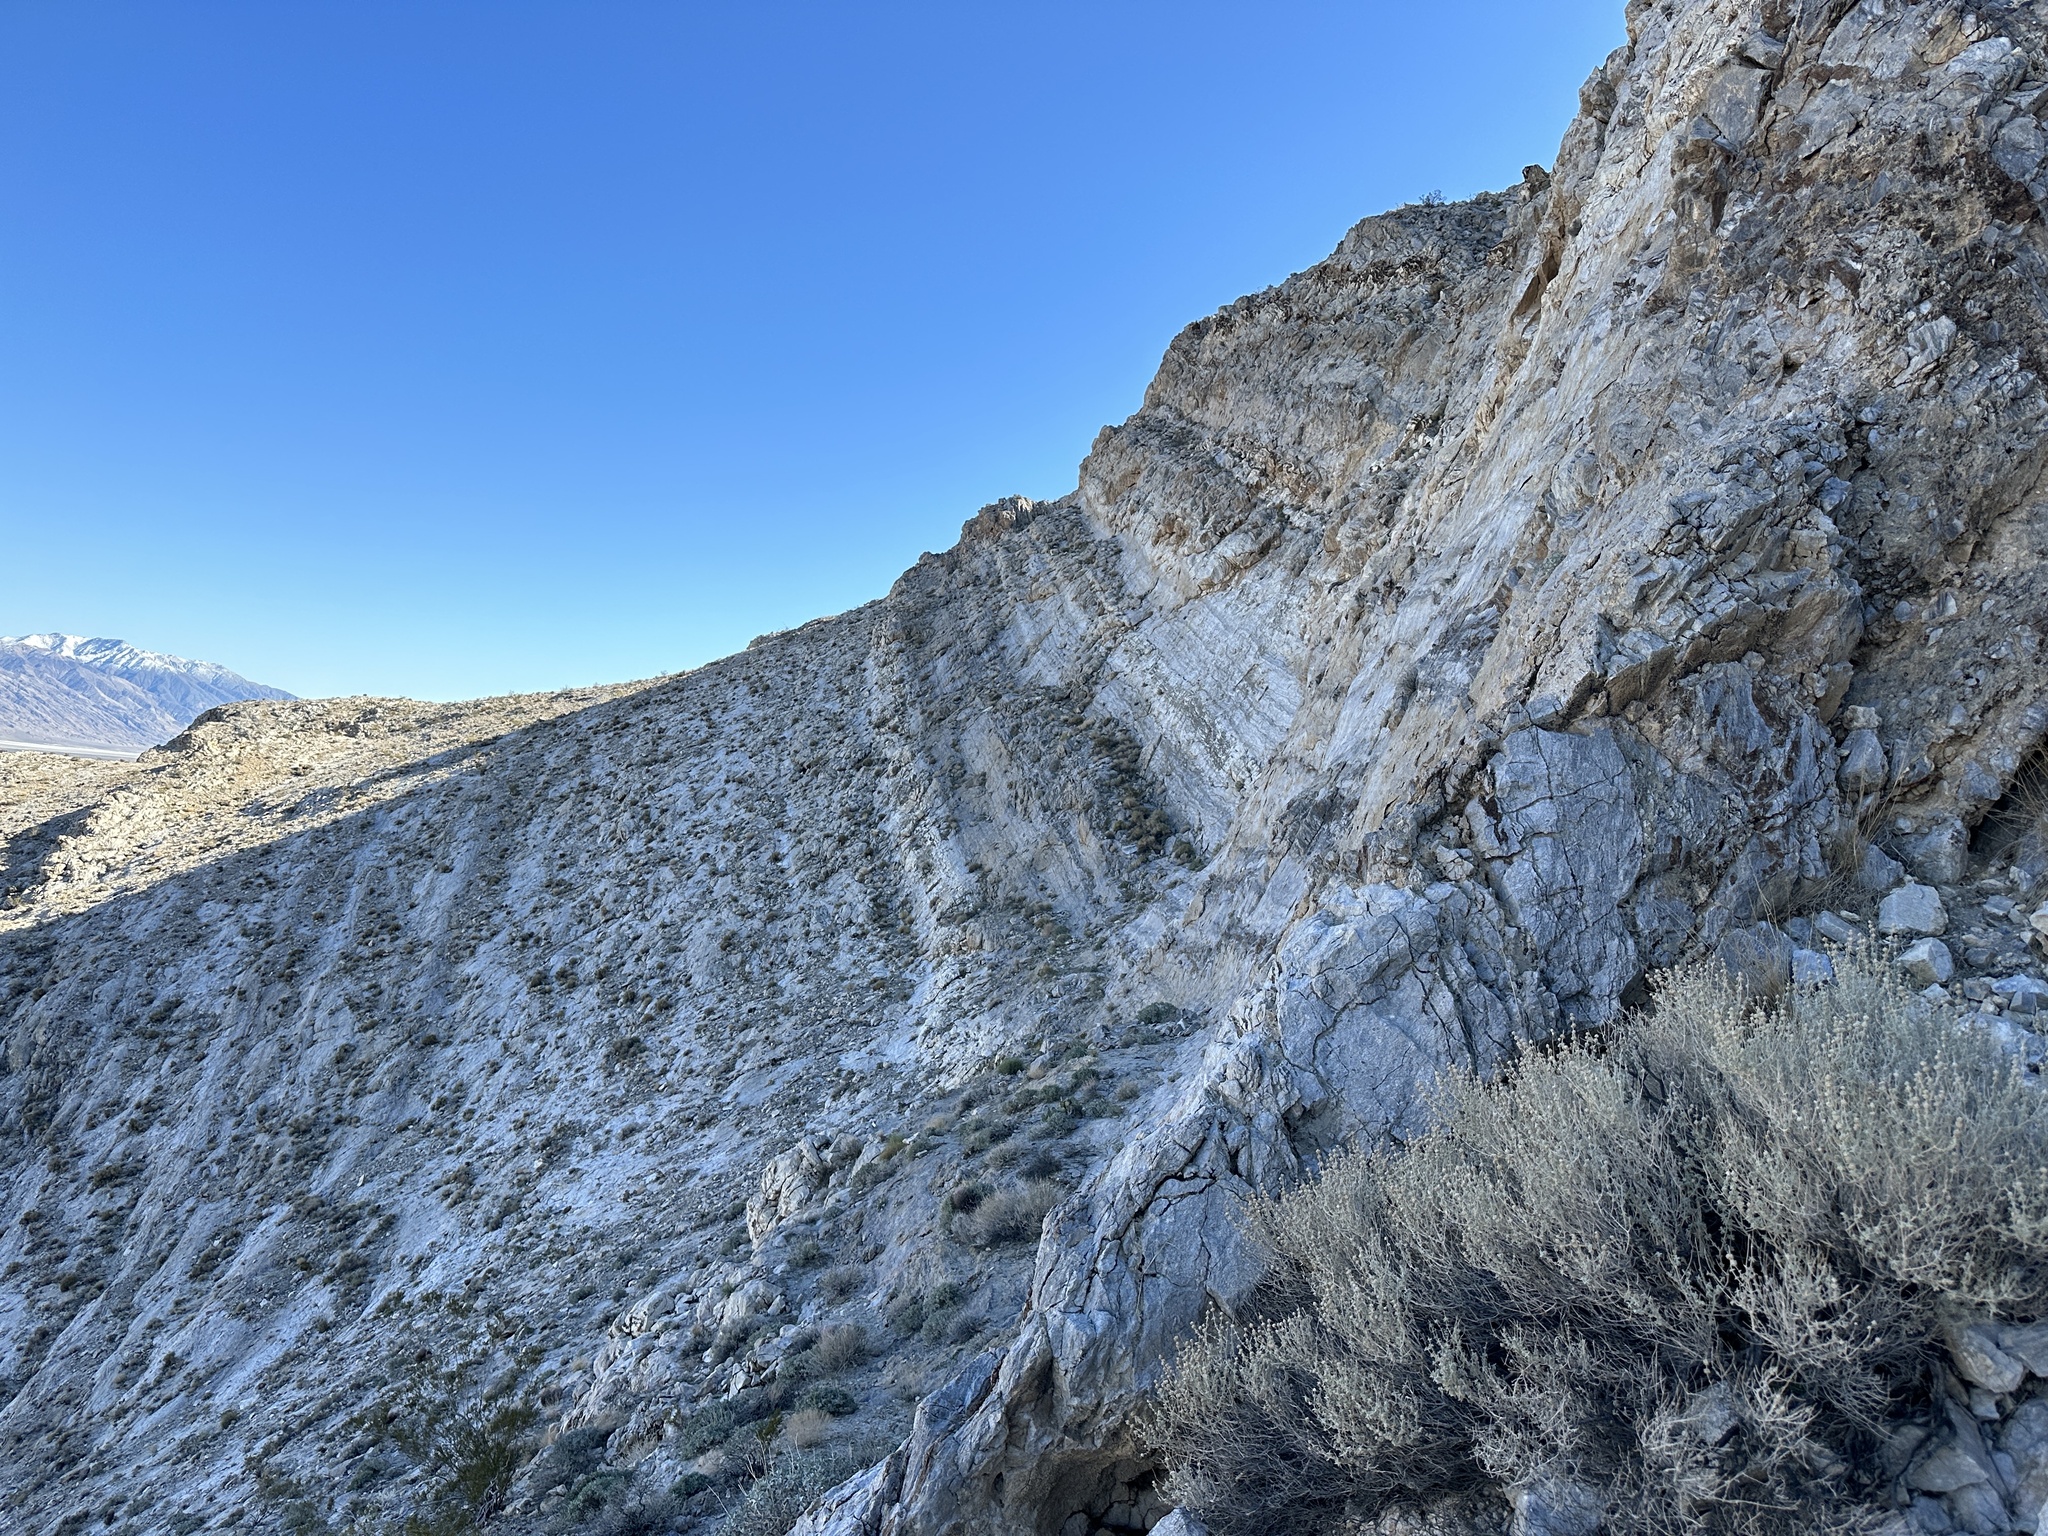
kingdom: Animalia
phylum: Mollusca
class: Gastropoda
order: Stylommatophora
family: Xanthonychidae
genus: Eremarionta
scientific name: Eremarionta argus
